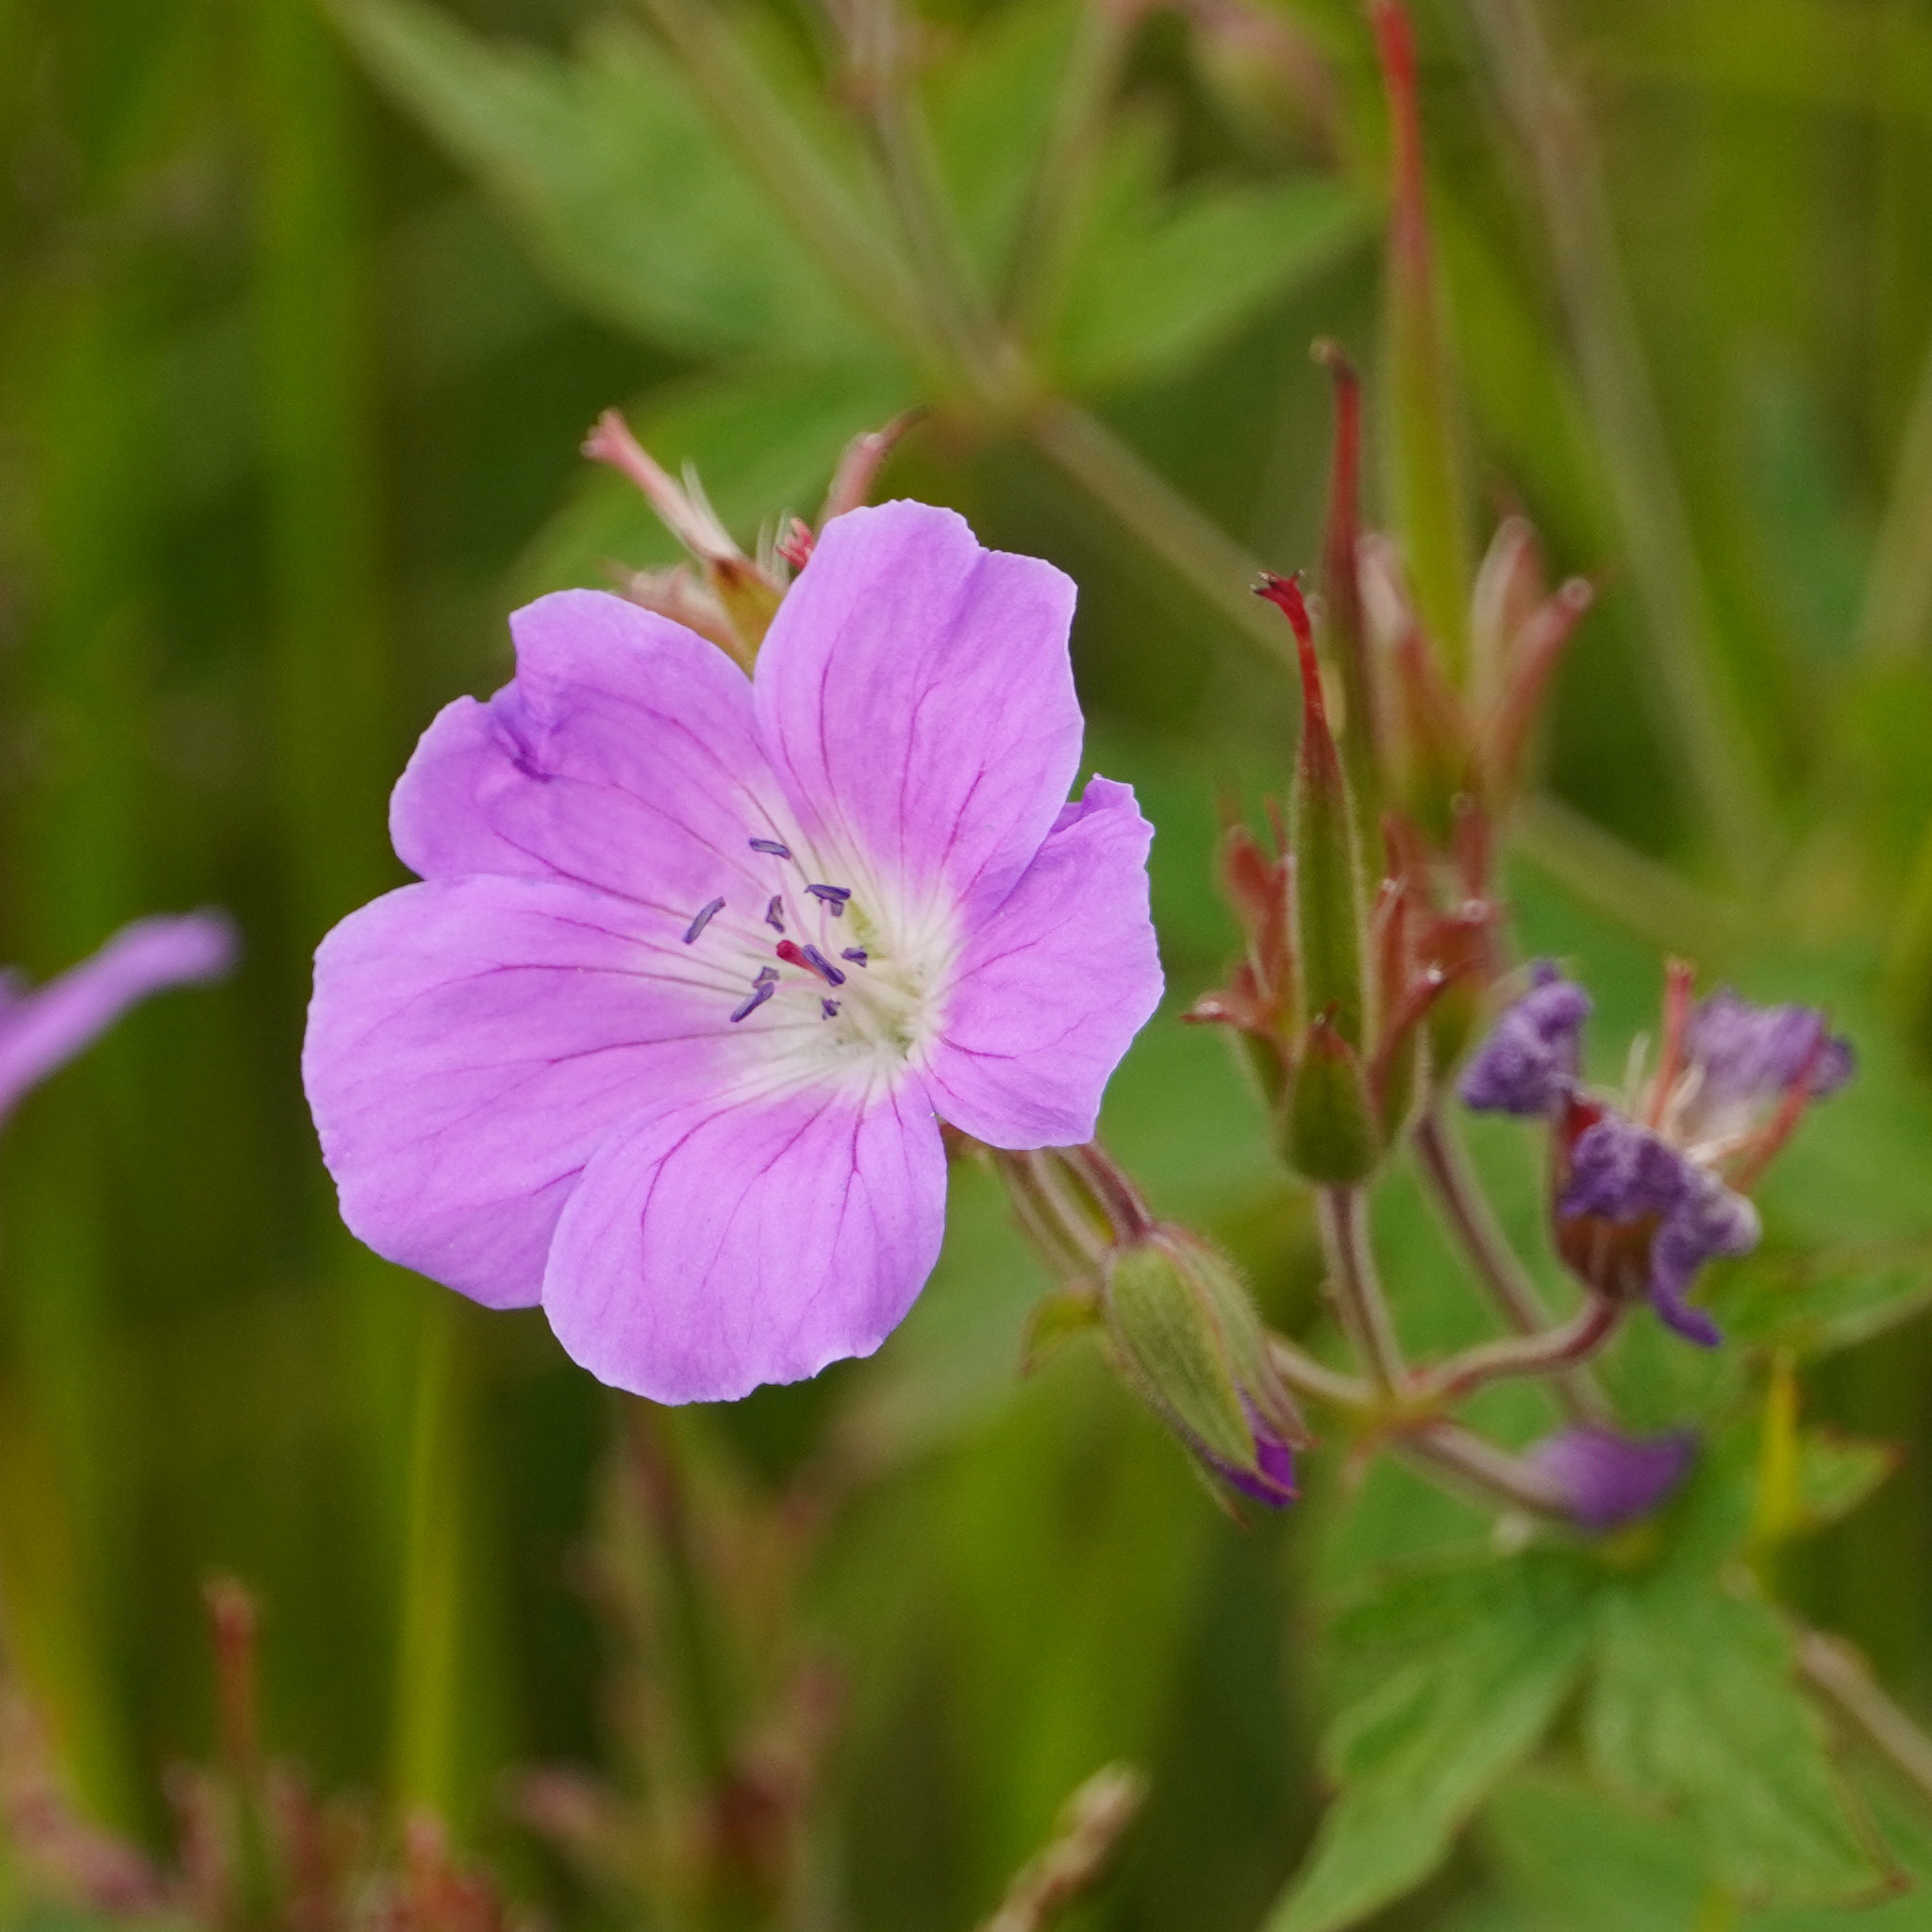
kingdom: Plantae
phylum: Tracheophyta
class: Magnoliopsida
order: Geraniales
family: Geraniaceae
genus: Geranium
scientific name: Geranium sylvaticum
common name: Wood crane's-bill
